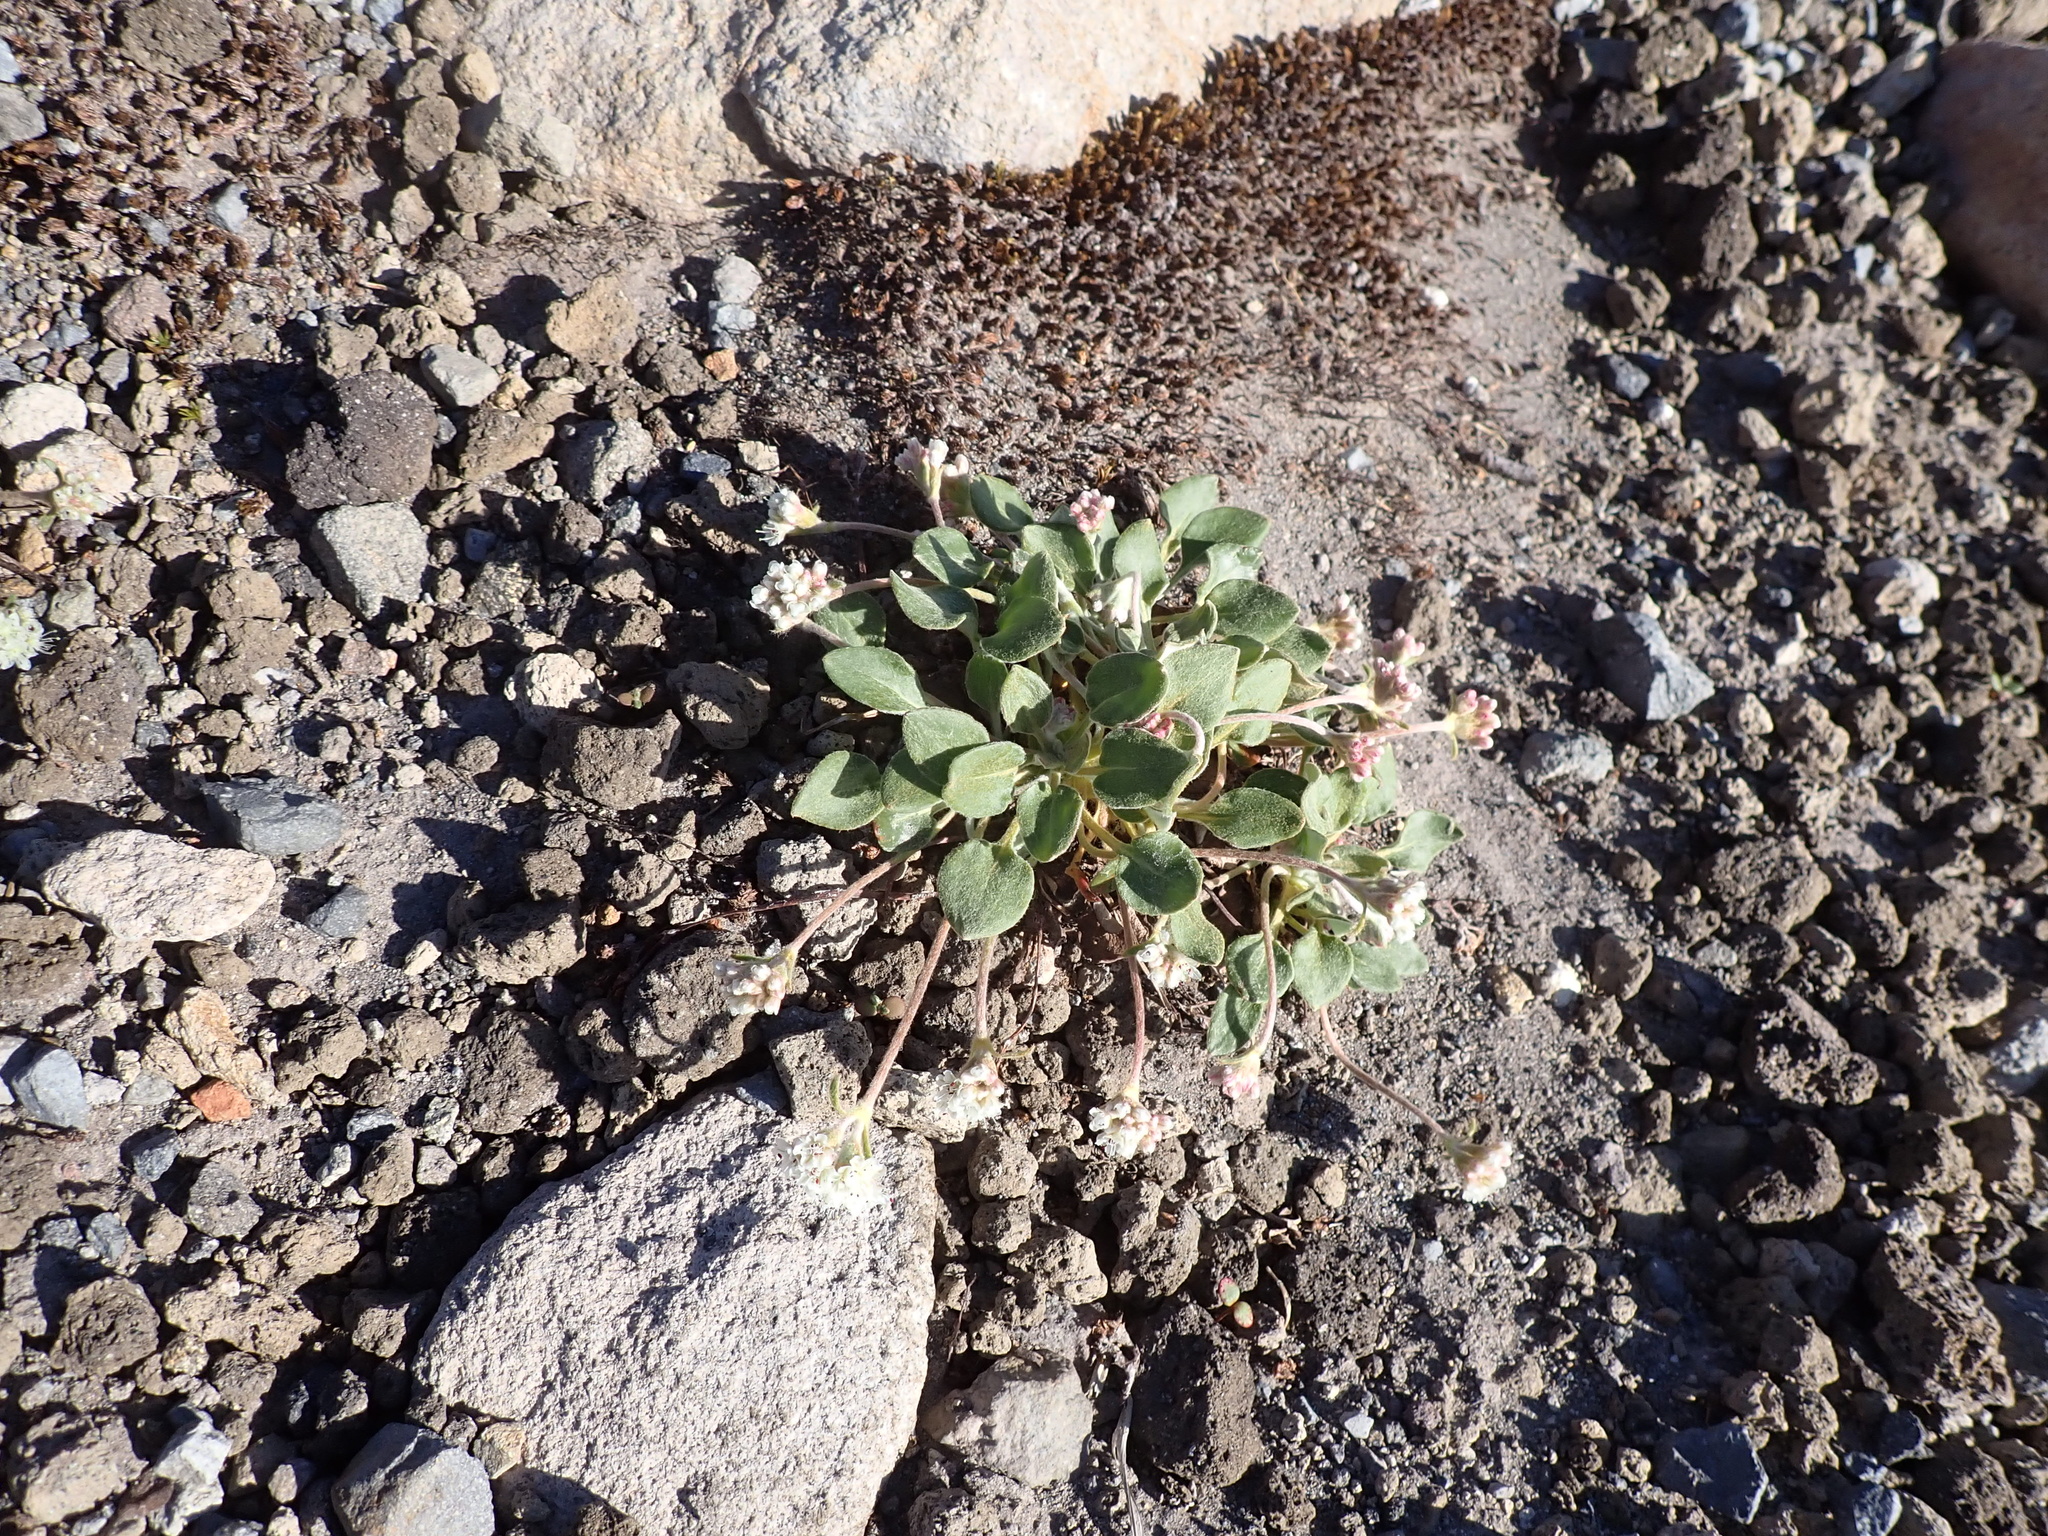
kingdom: Plantae
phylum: Tracheophyta
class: Magnoliopsida
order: Caryophyllales
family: Polygonaceae
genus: Eriogonum
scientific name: Eriogonum pyrolifolium
